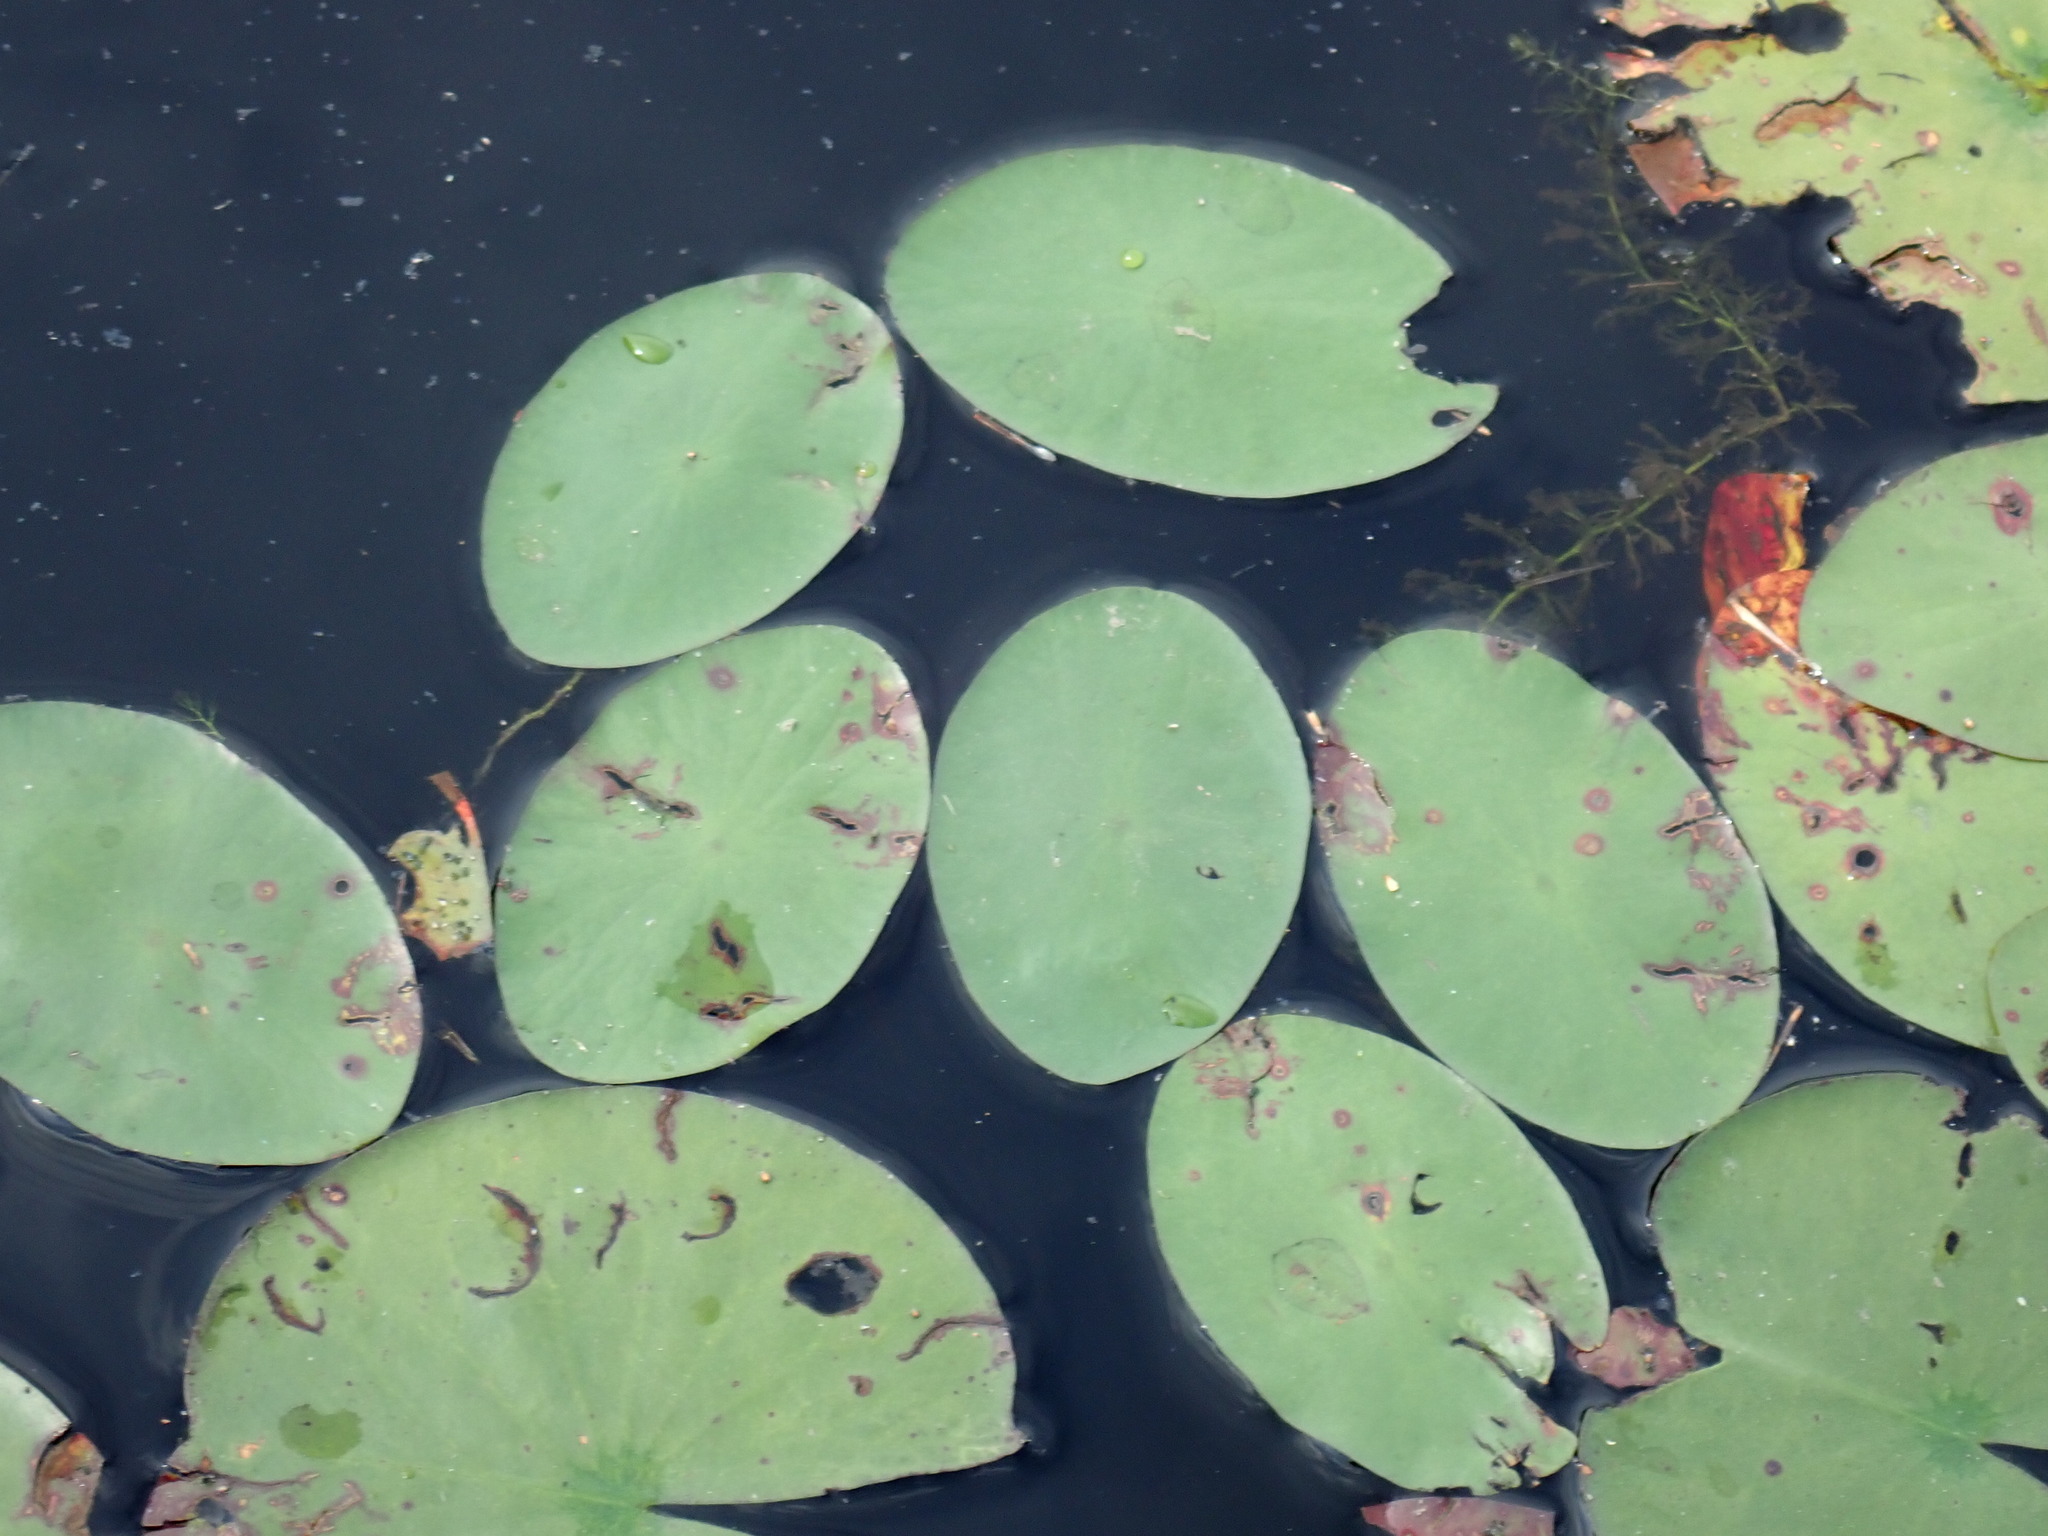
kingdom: Plantae
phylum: Tracheophyta
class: Magnoliopsida
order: Nymphaeales
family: Cabombaceae
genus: Brasenia
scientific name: Brasenia schreberi
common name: Water-shield
